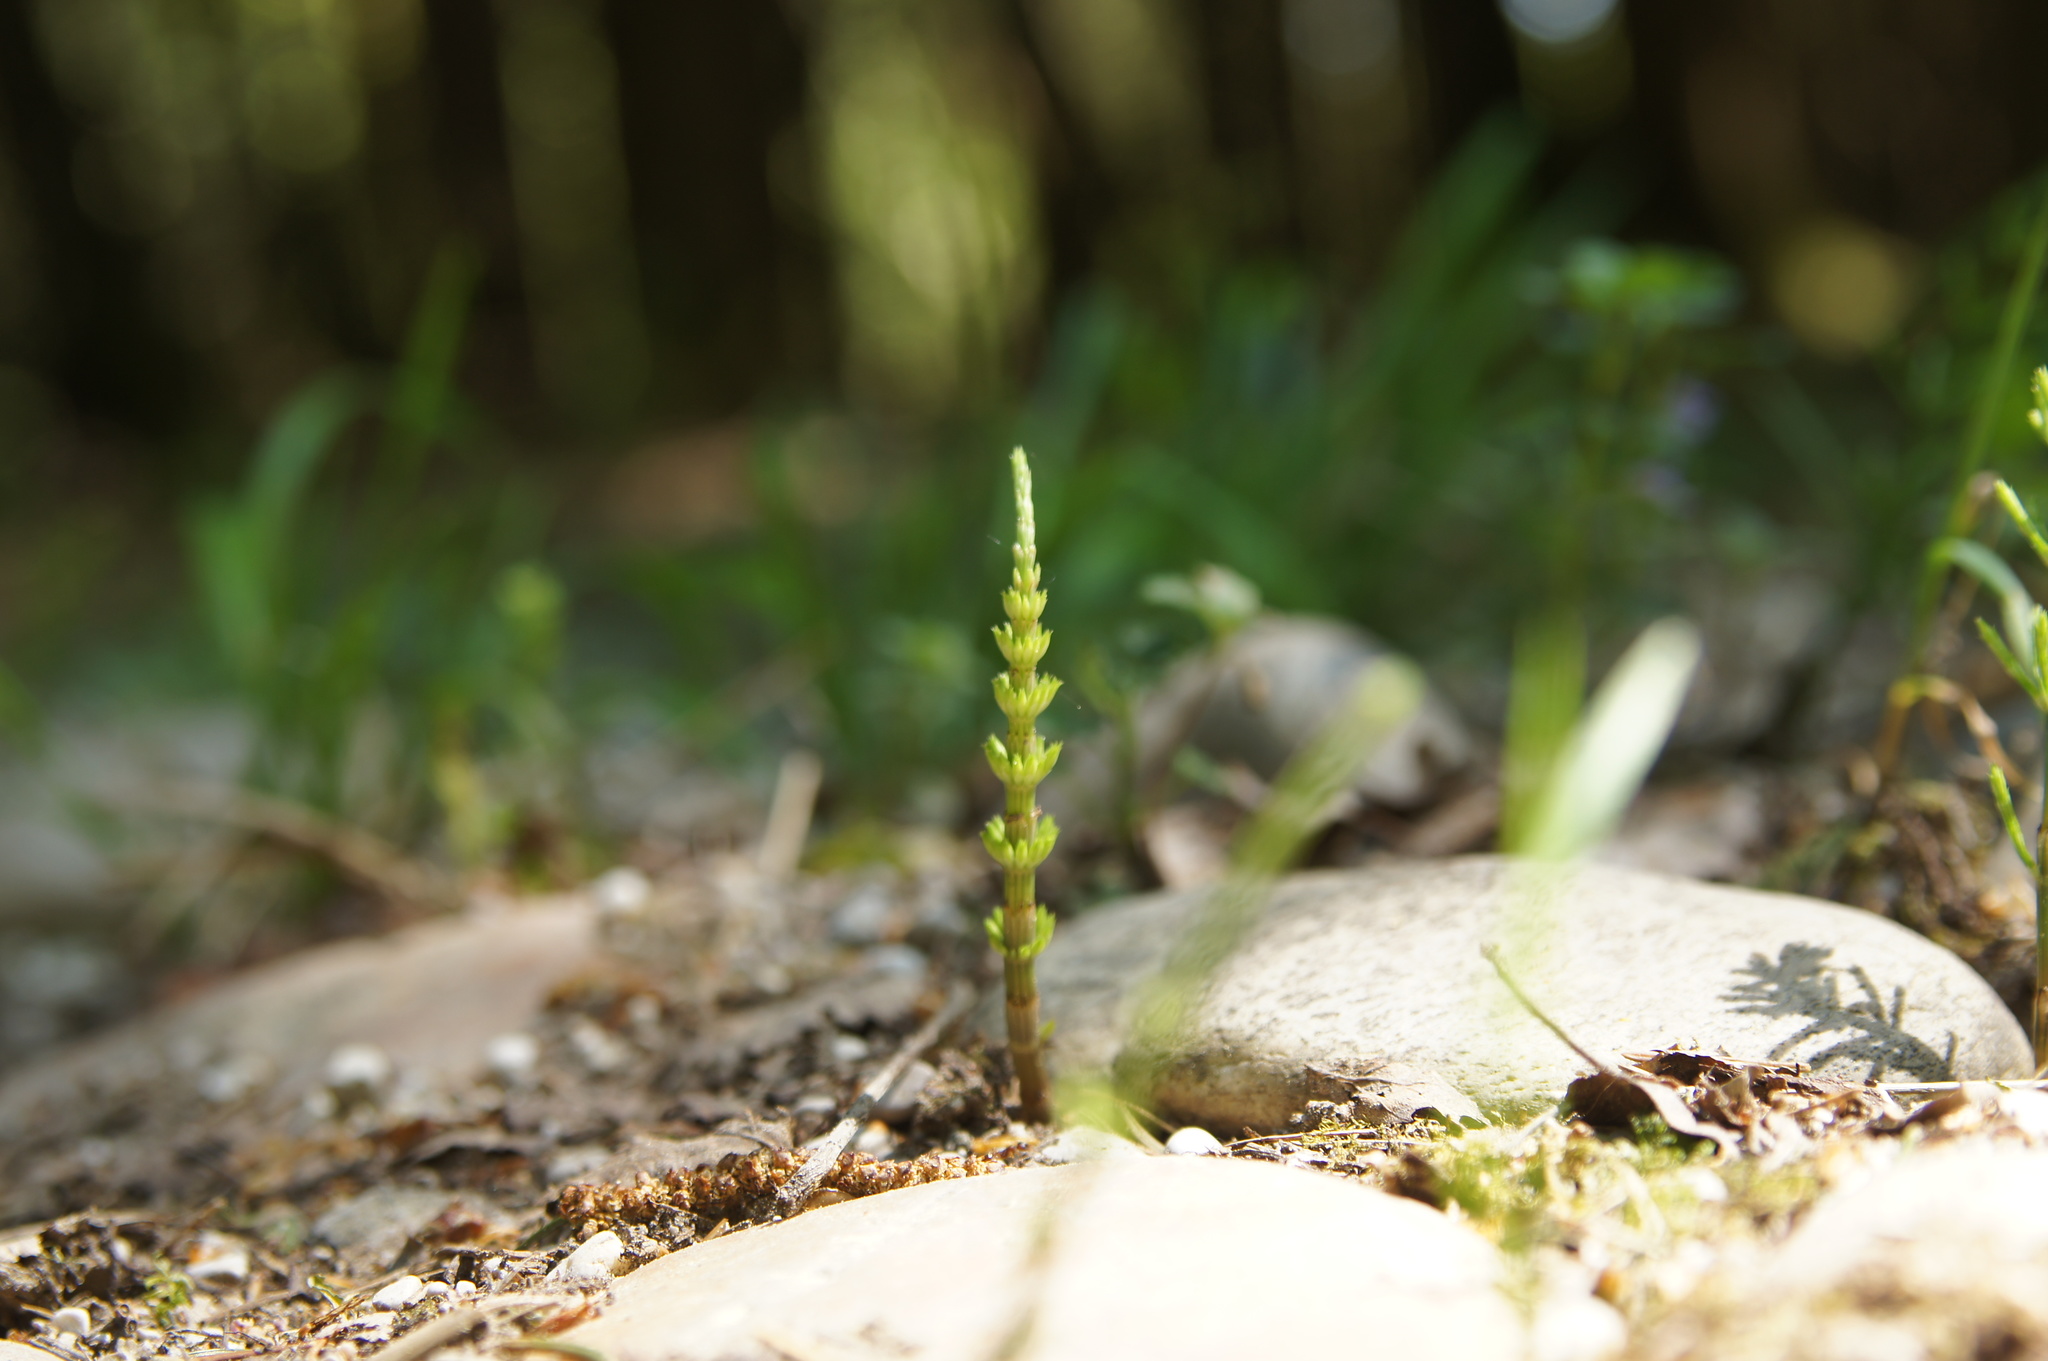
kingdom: Plantae
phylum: Tracheophyta
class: Polypodiopsida
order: Equisetales
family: Equisetaceae
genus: Equisetum
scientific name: Equisetum arvense
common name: Field horsetail
